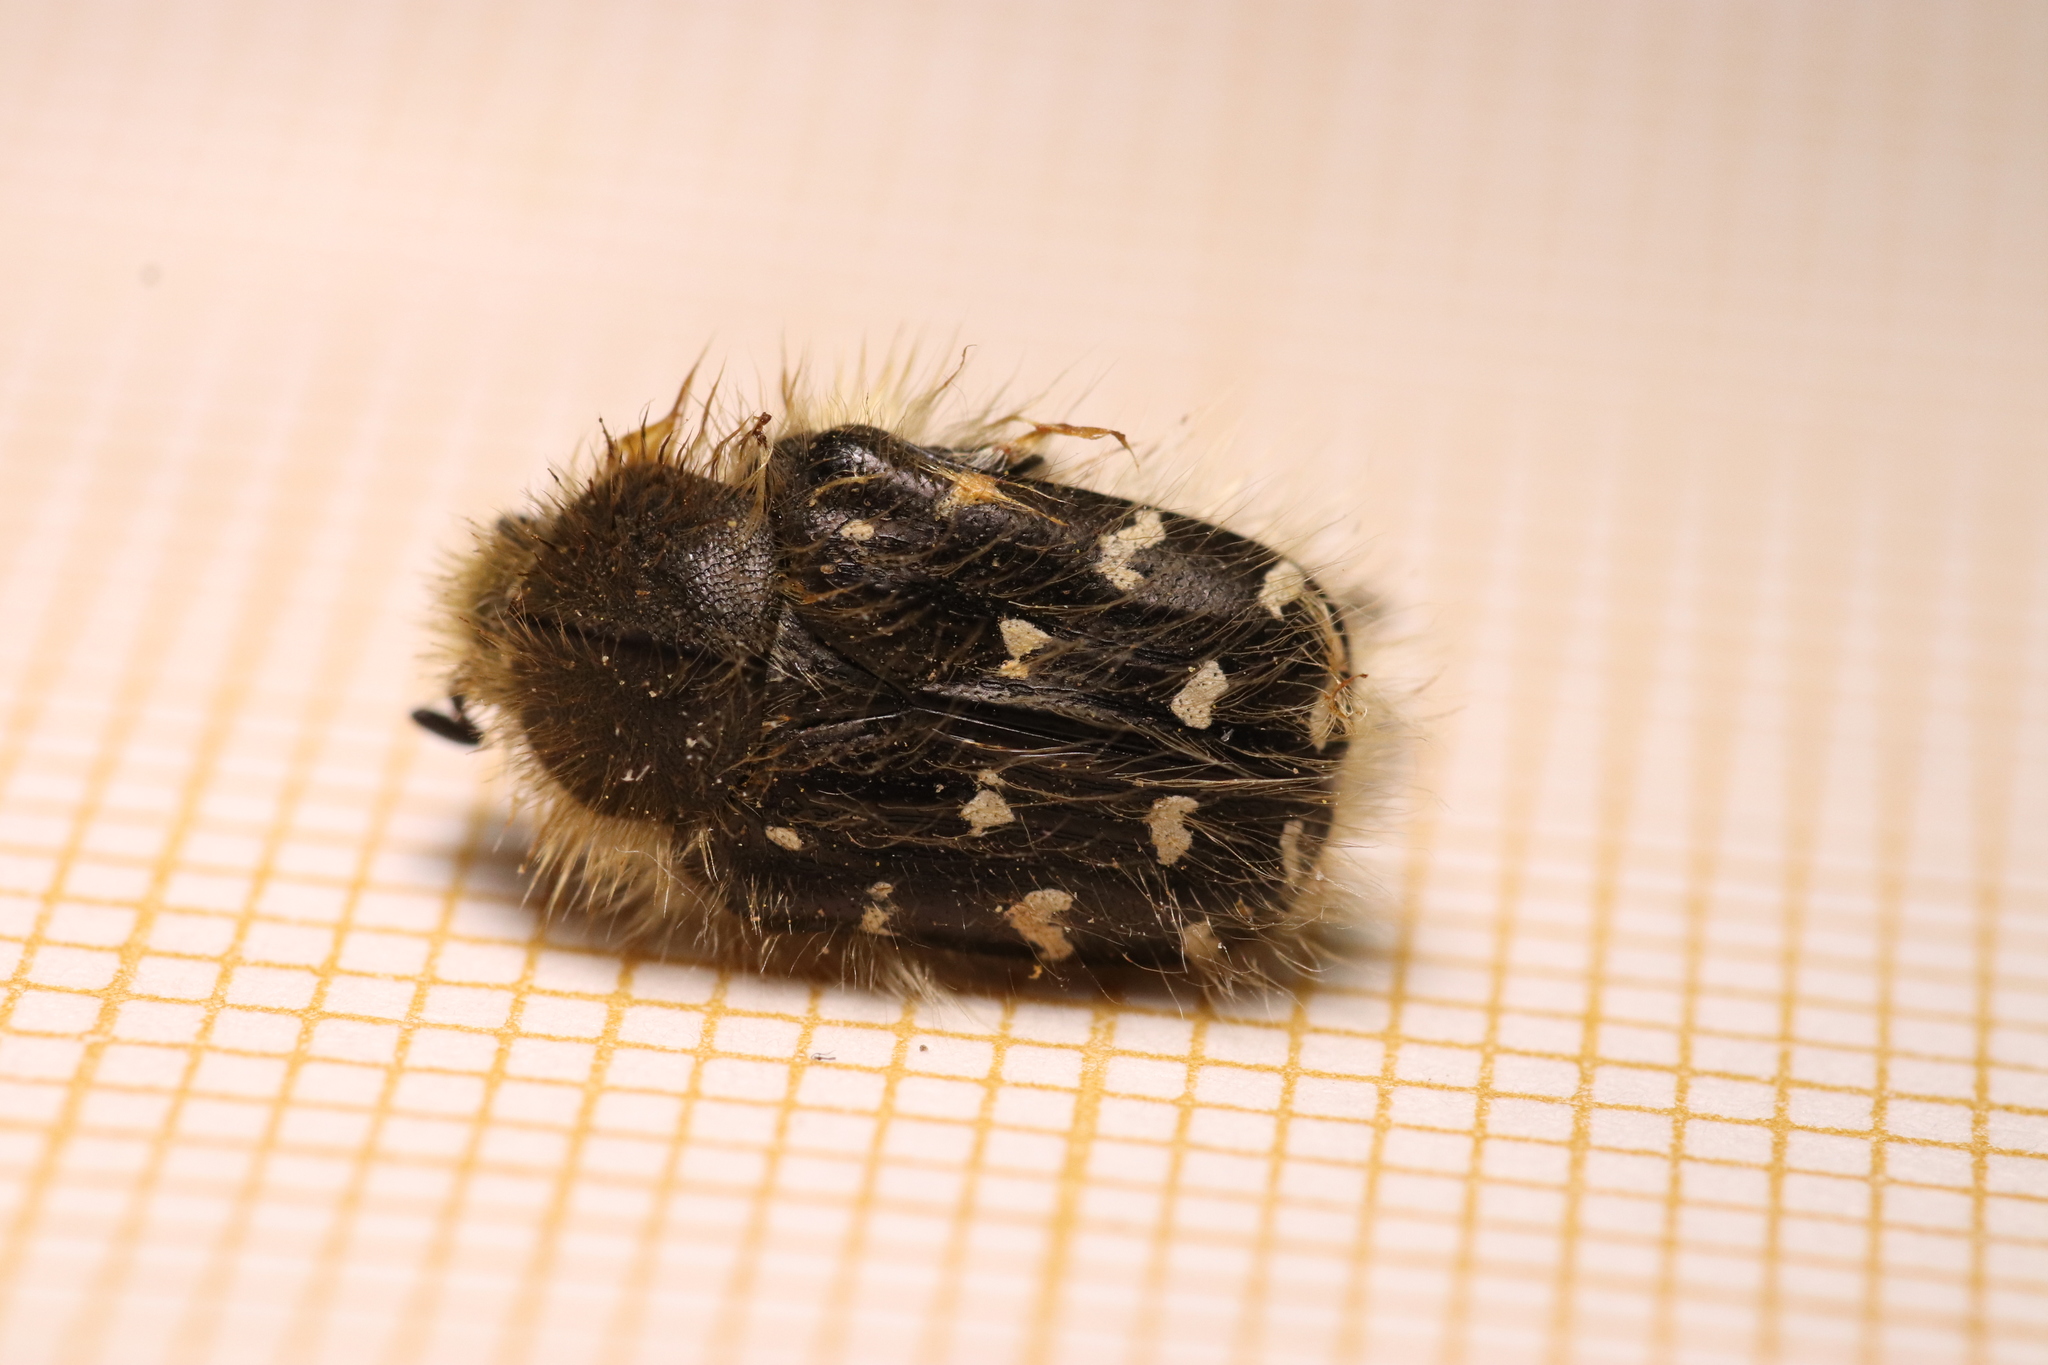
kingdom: Animalia
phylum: Arthropoda
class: Insecta
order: Coleoptera
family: Scarabaeidae
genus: Tropinota
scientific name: Tropinota hirta
